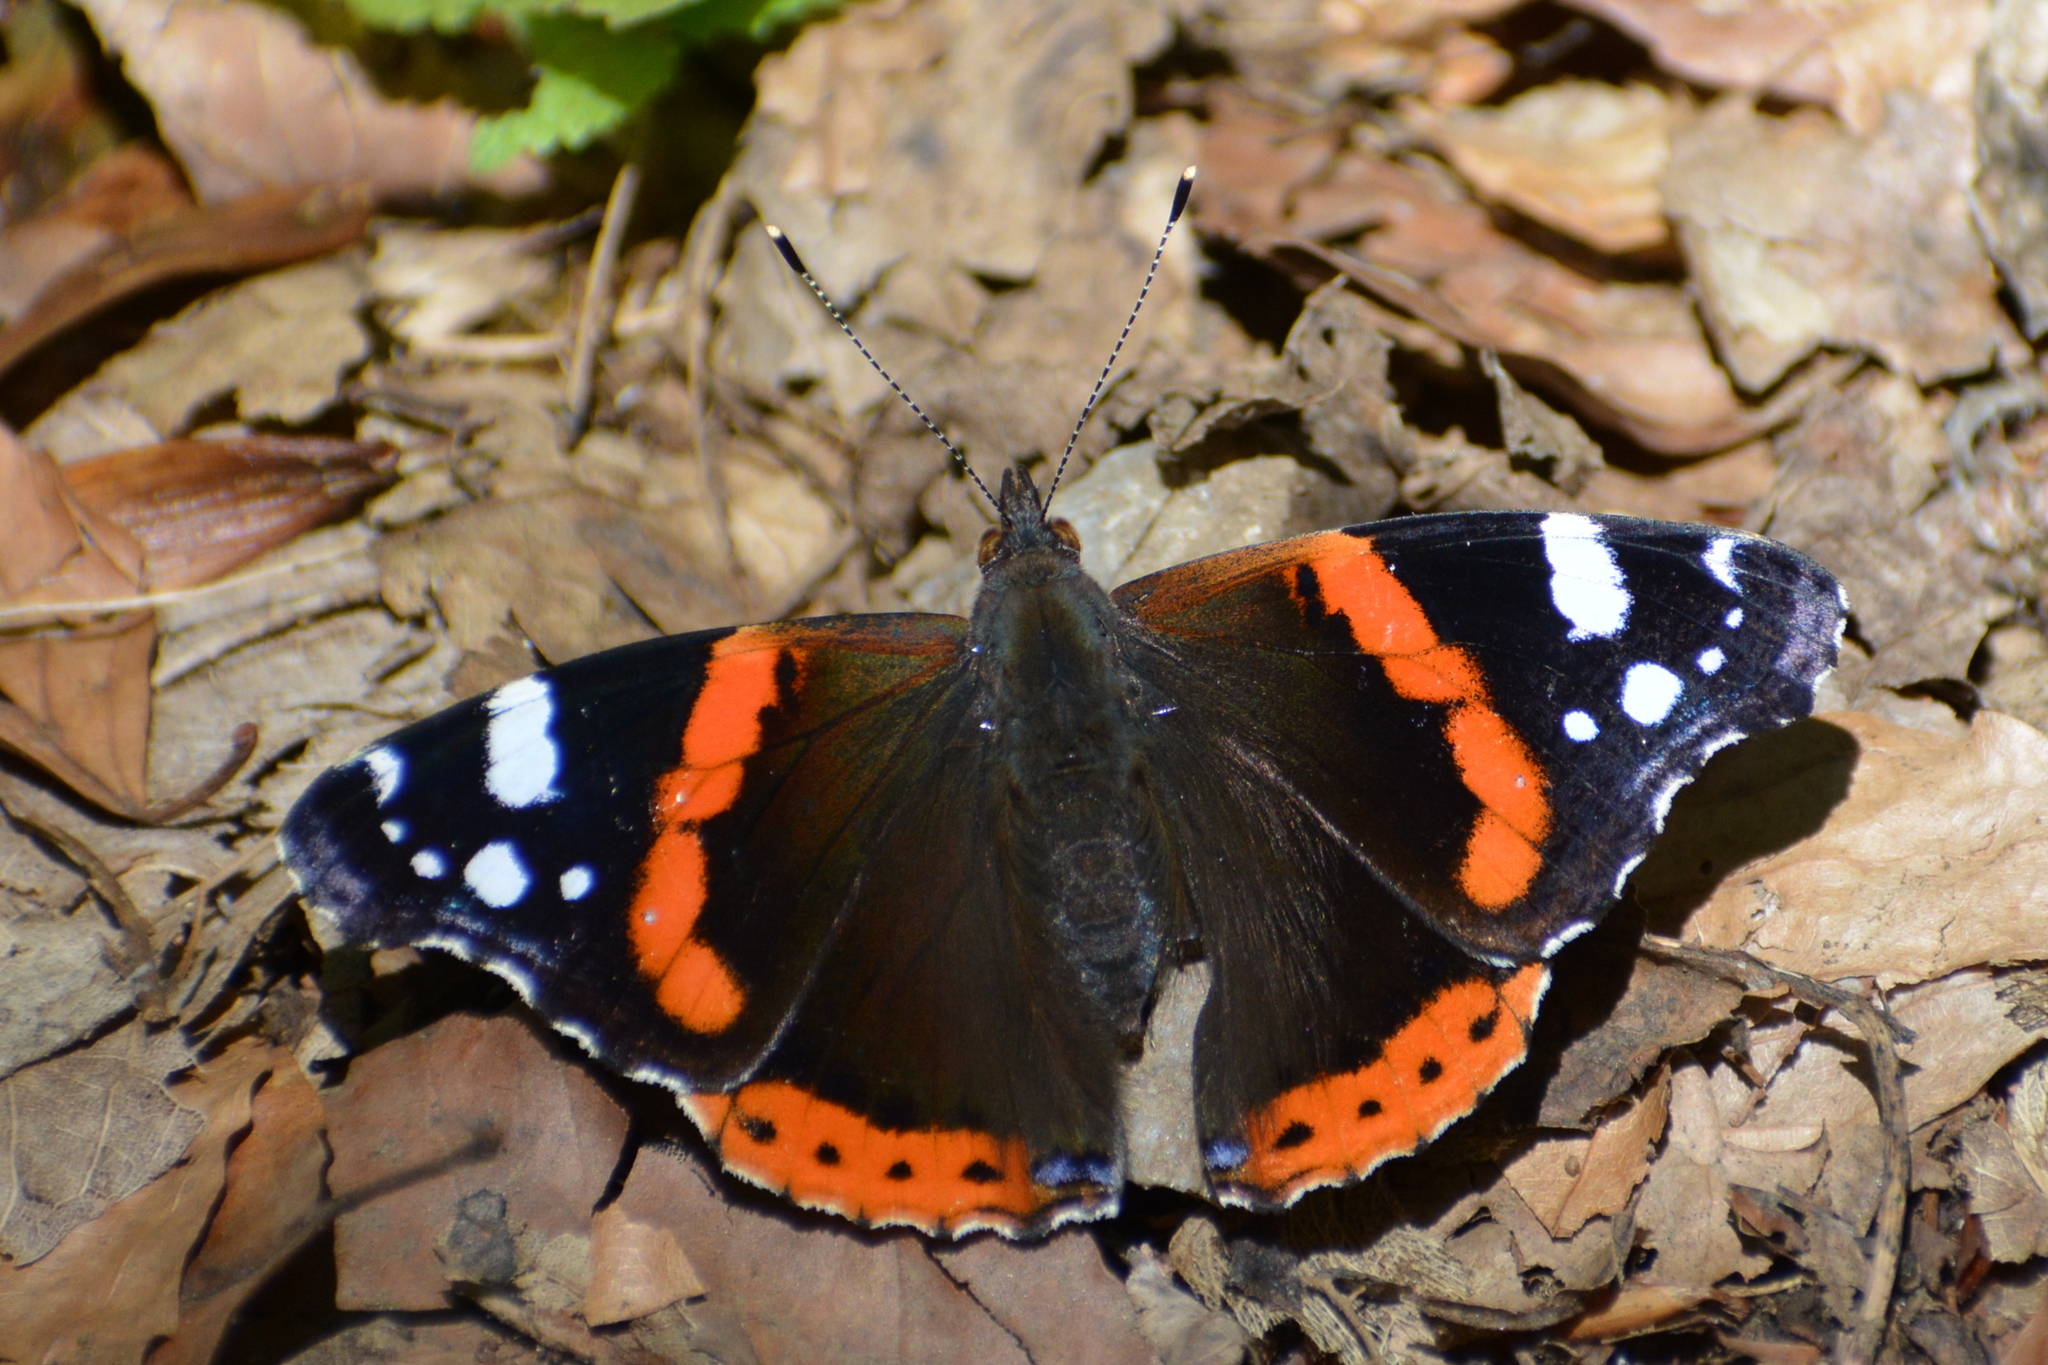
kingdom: Animalia
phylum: Arthropoda
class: Insecta
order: Lepidoptera
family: Nymphalidae
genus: Vanessa
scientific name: Vanessa atalanta
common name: Red admiral
